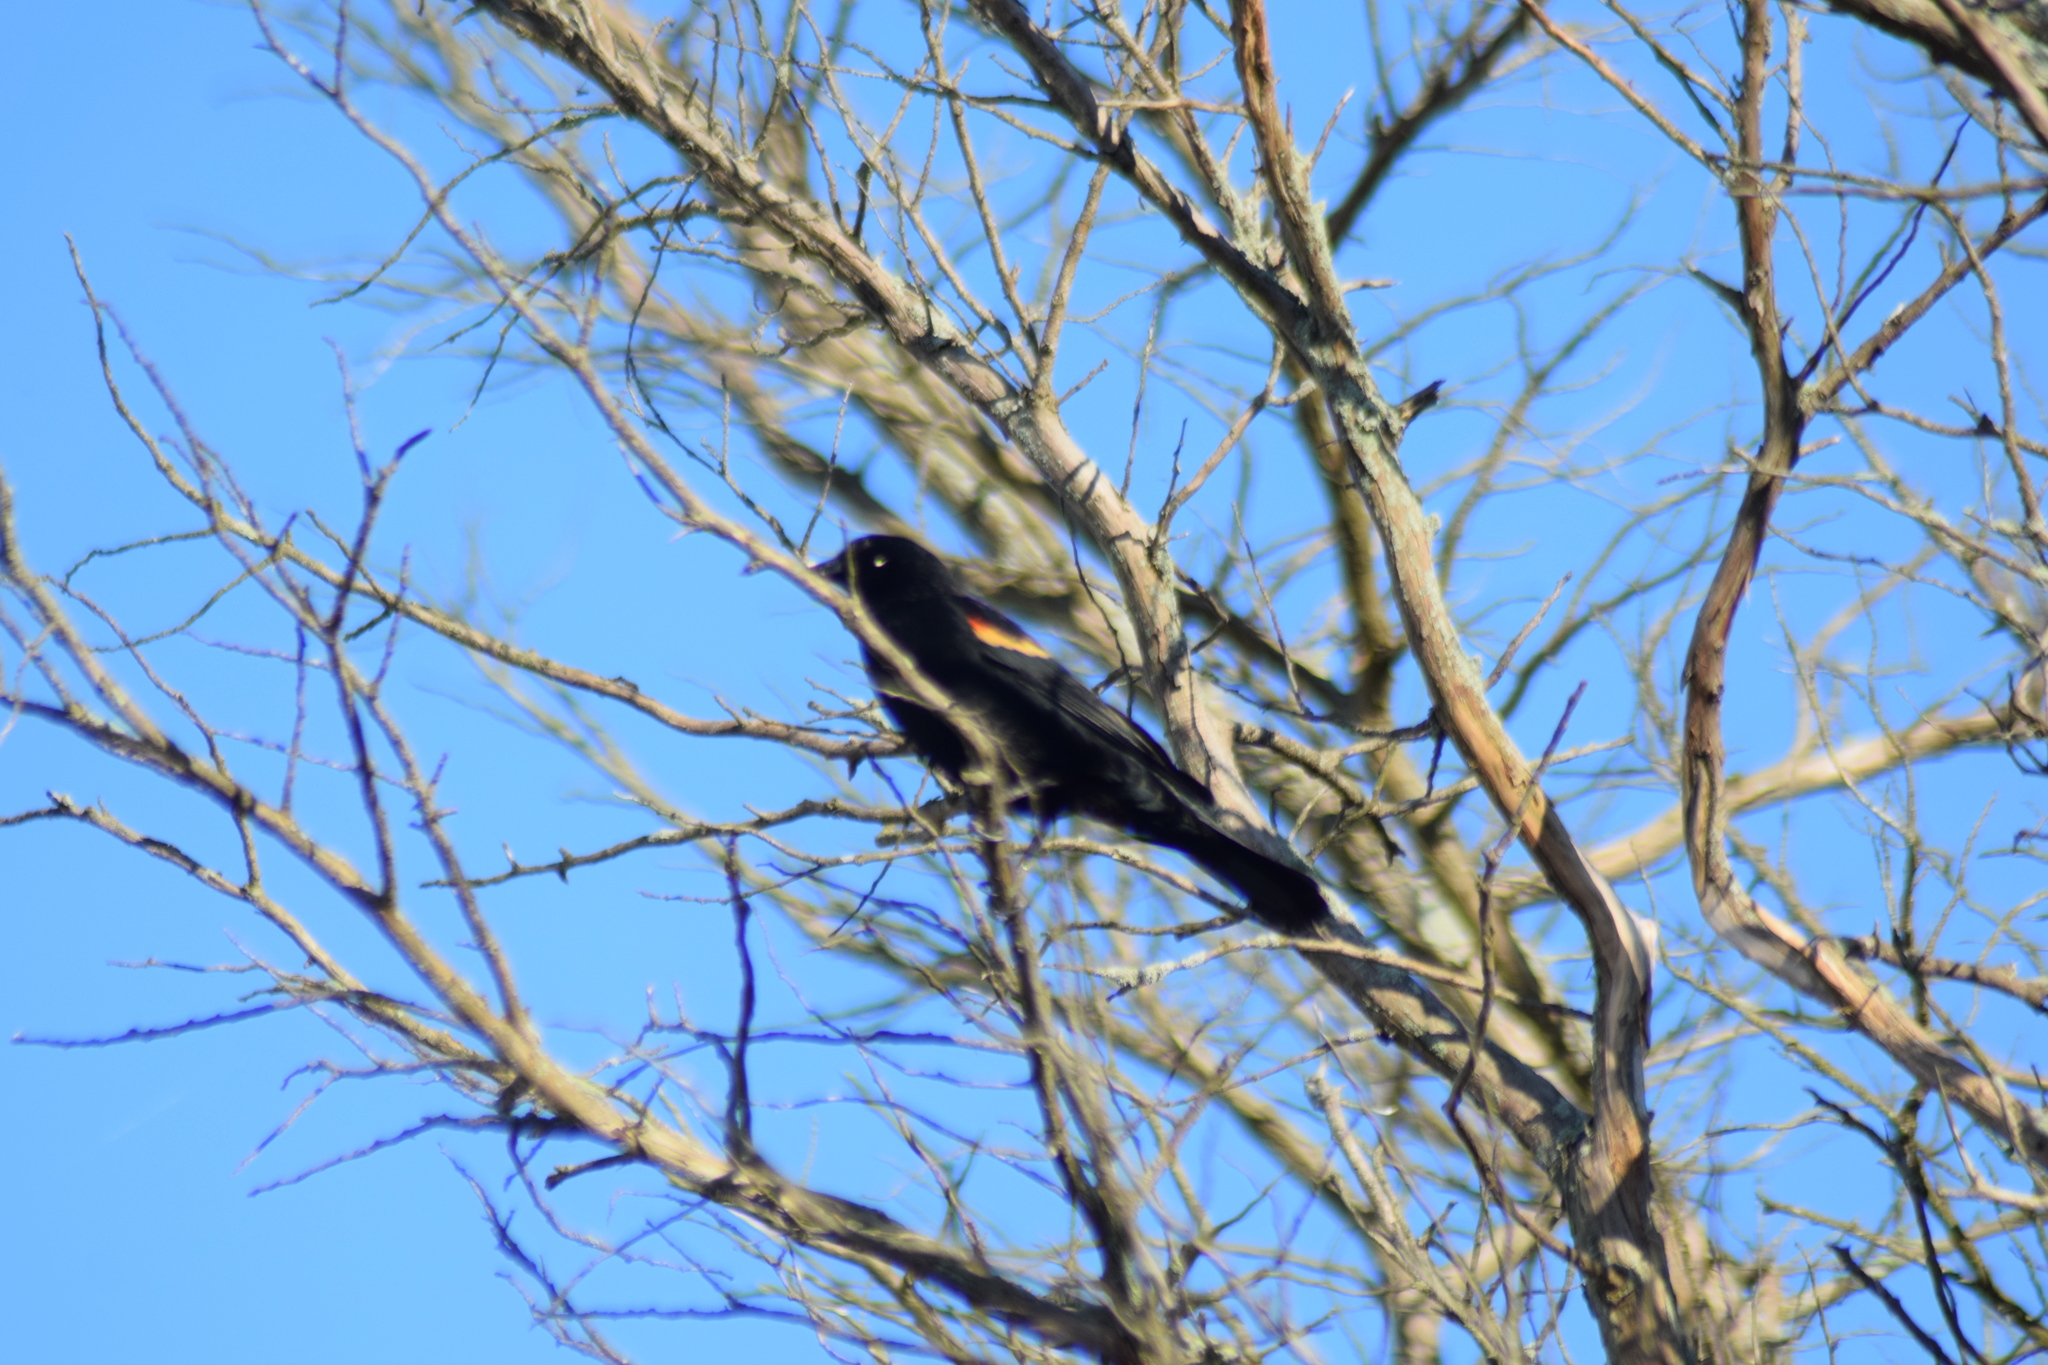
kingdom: Animalia
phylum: Chordata
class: Aves
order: Passeriformes
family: Icteridae
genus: Agelaius
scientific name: Agelaius phoeniceus
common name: Red-winged blackbird
